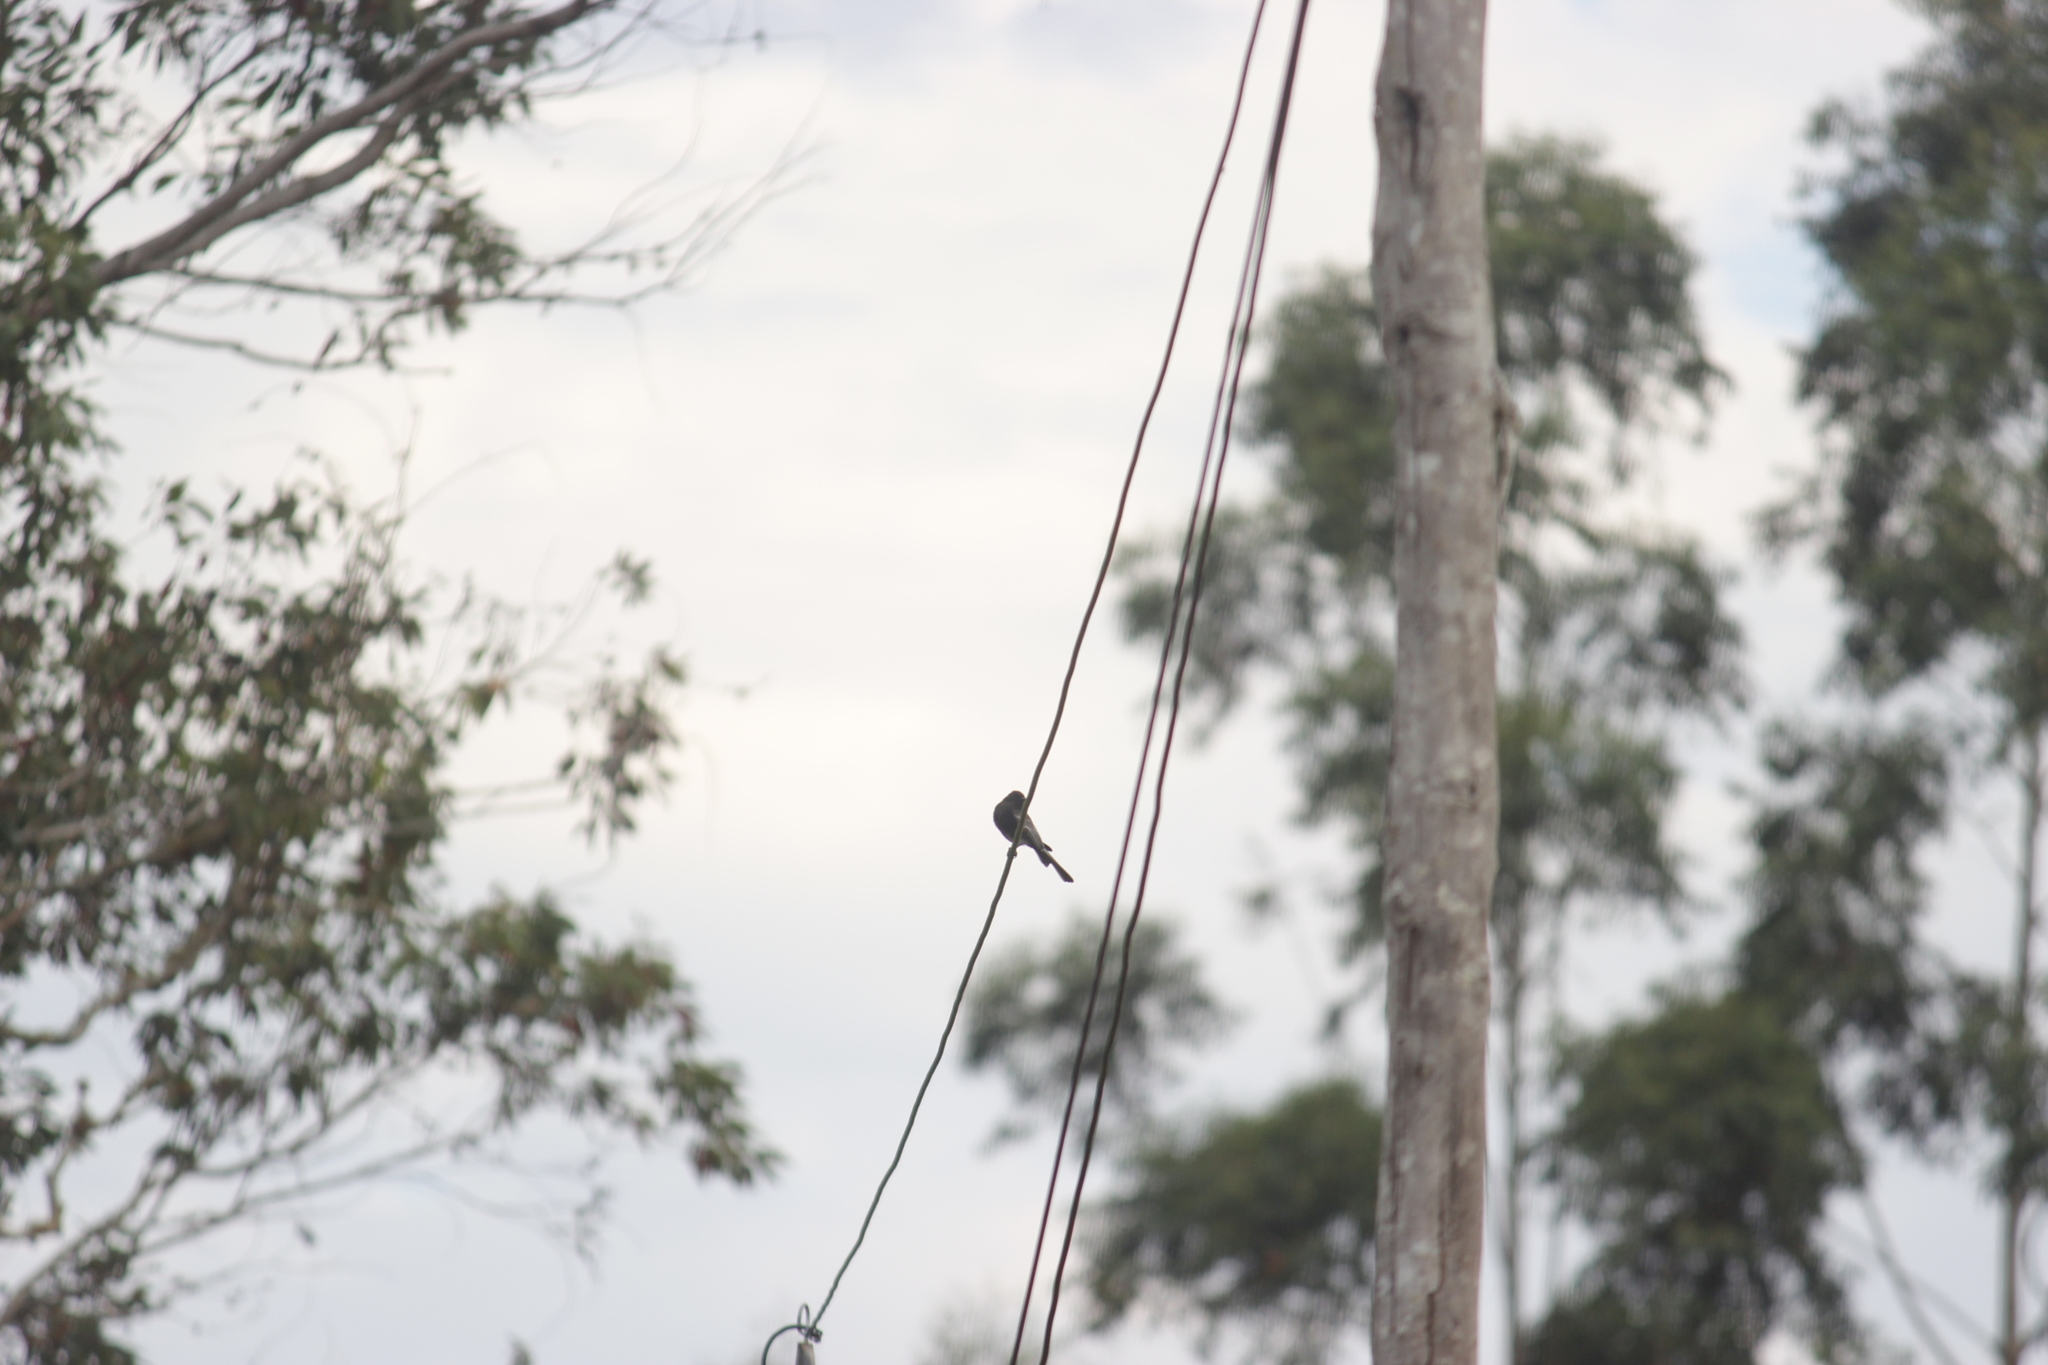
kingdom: Animalia
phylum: Chordata
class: Aves
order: Passeriformes
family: Tyrannidae
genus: Sayornis
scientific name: Sayornis nigricans
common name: Black phoebe
